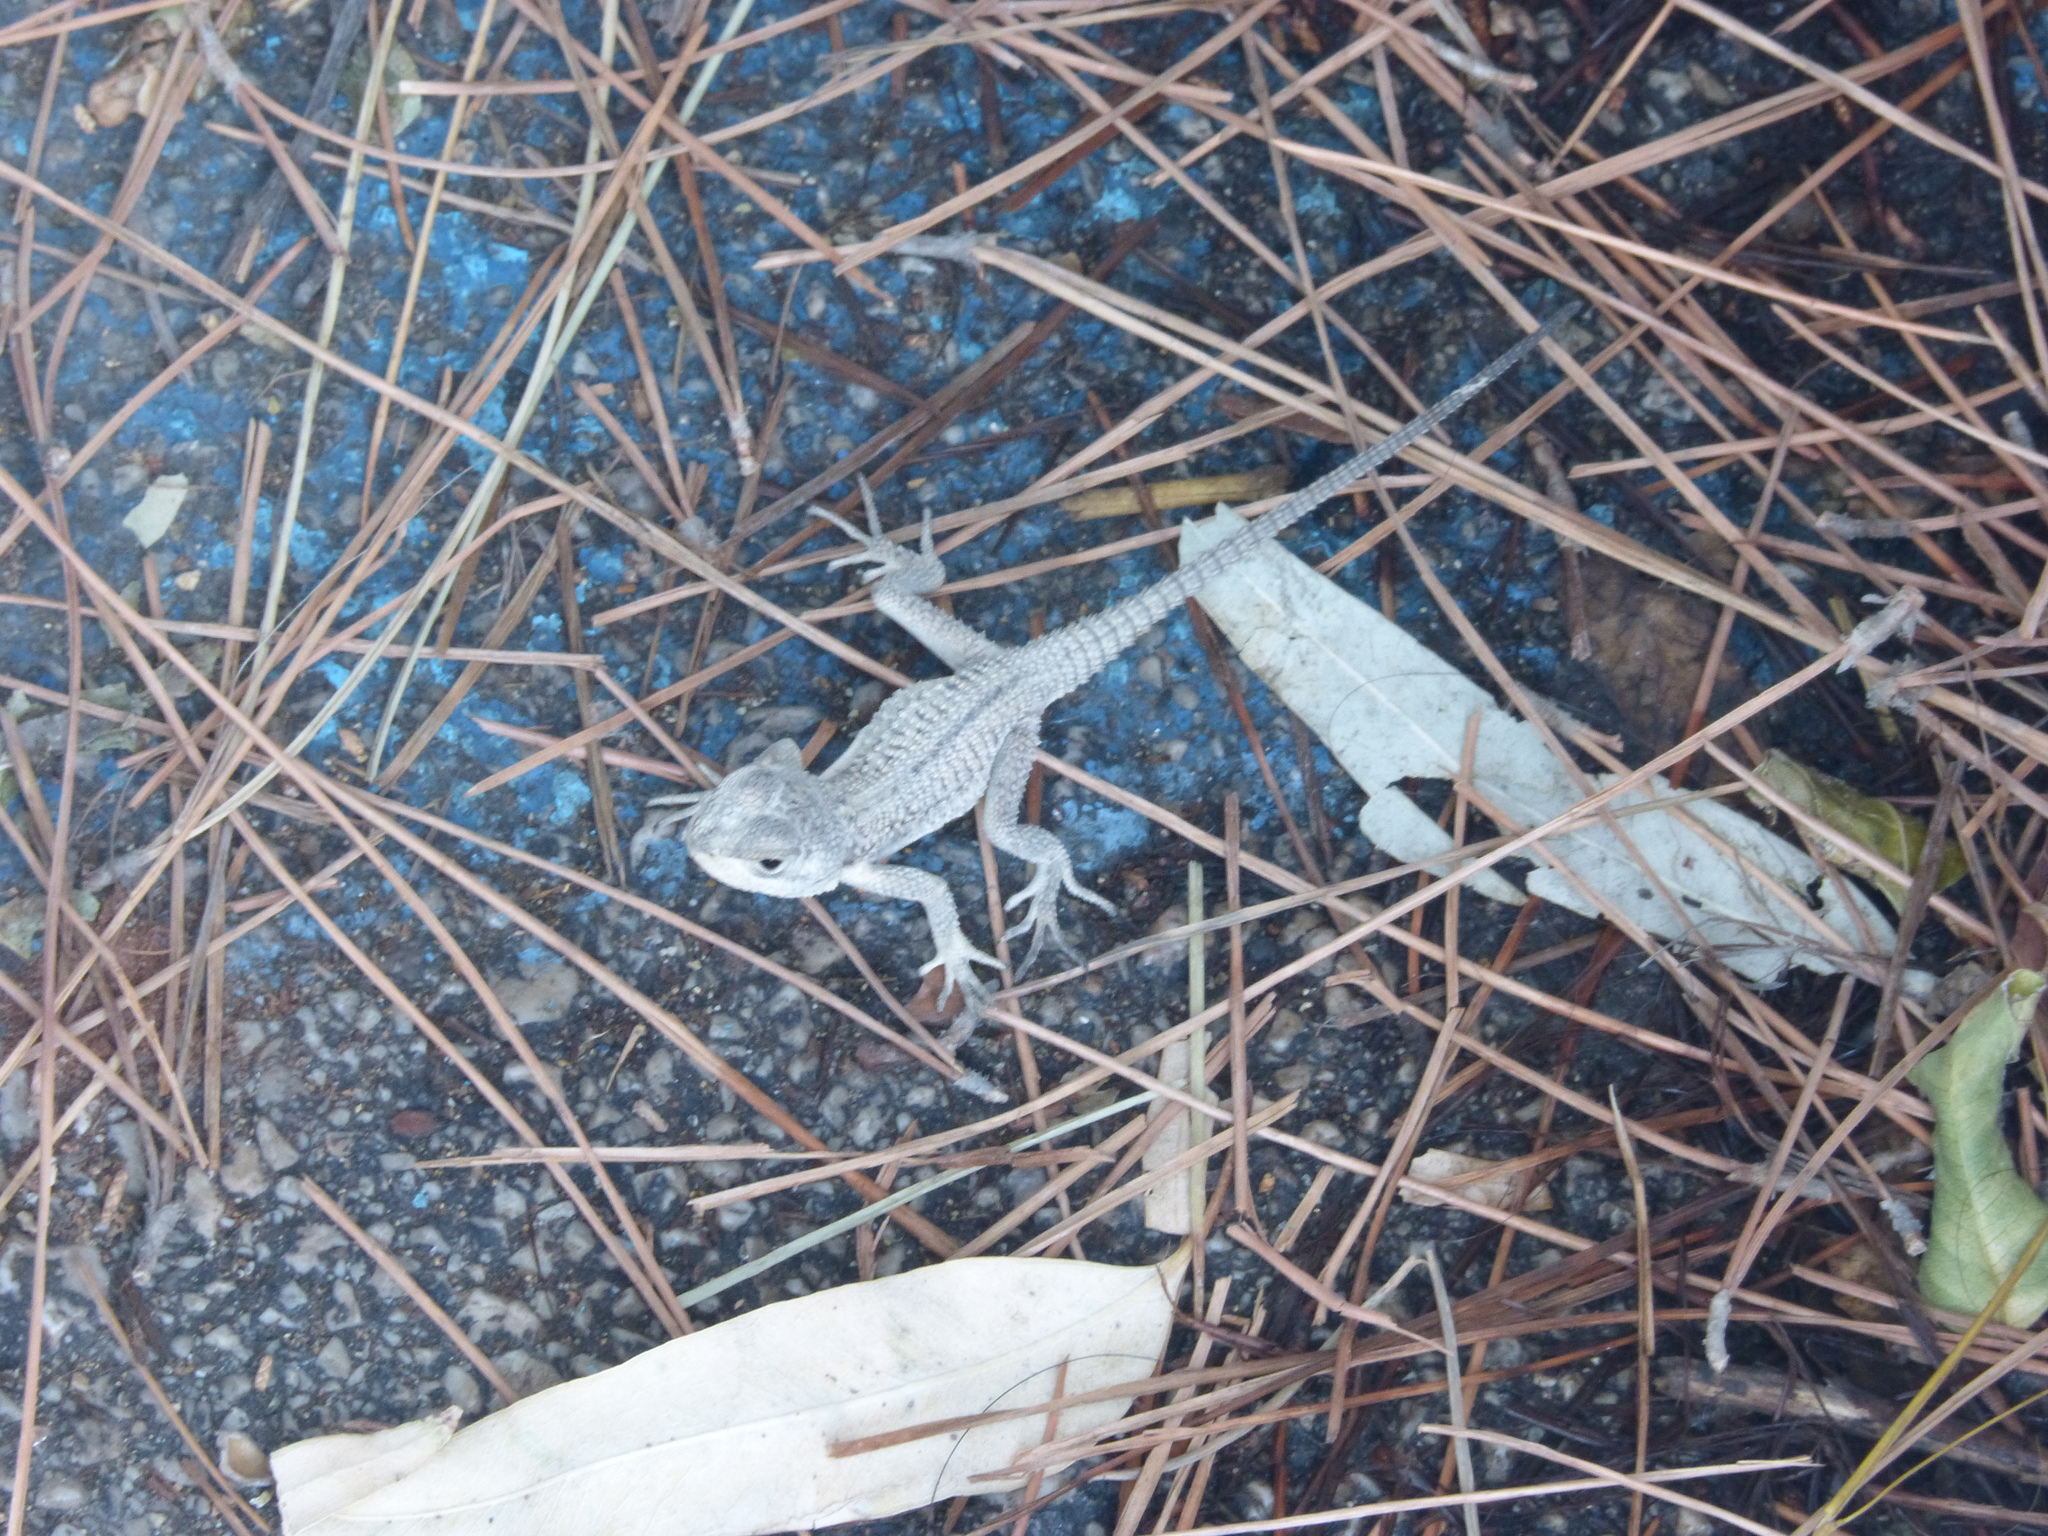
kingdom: Animalia
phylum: Chordata
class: Squamata
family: Agamidae
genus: Stellagama
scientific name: Stellagama stellio
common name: Starred agama
